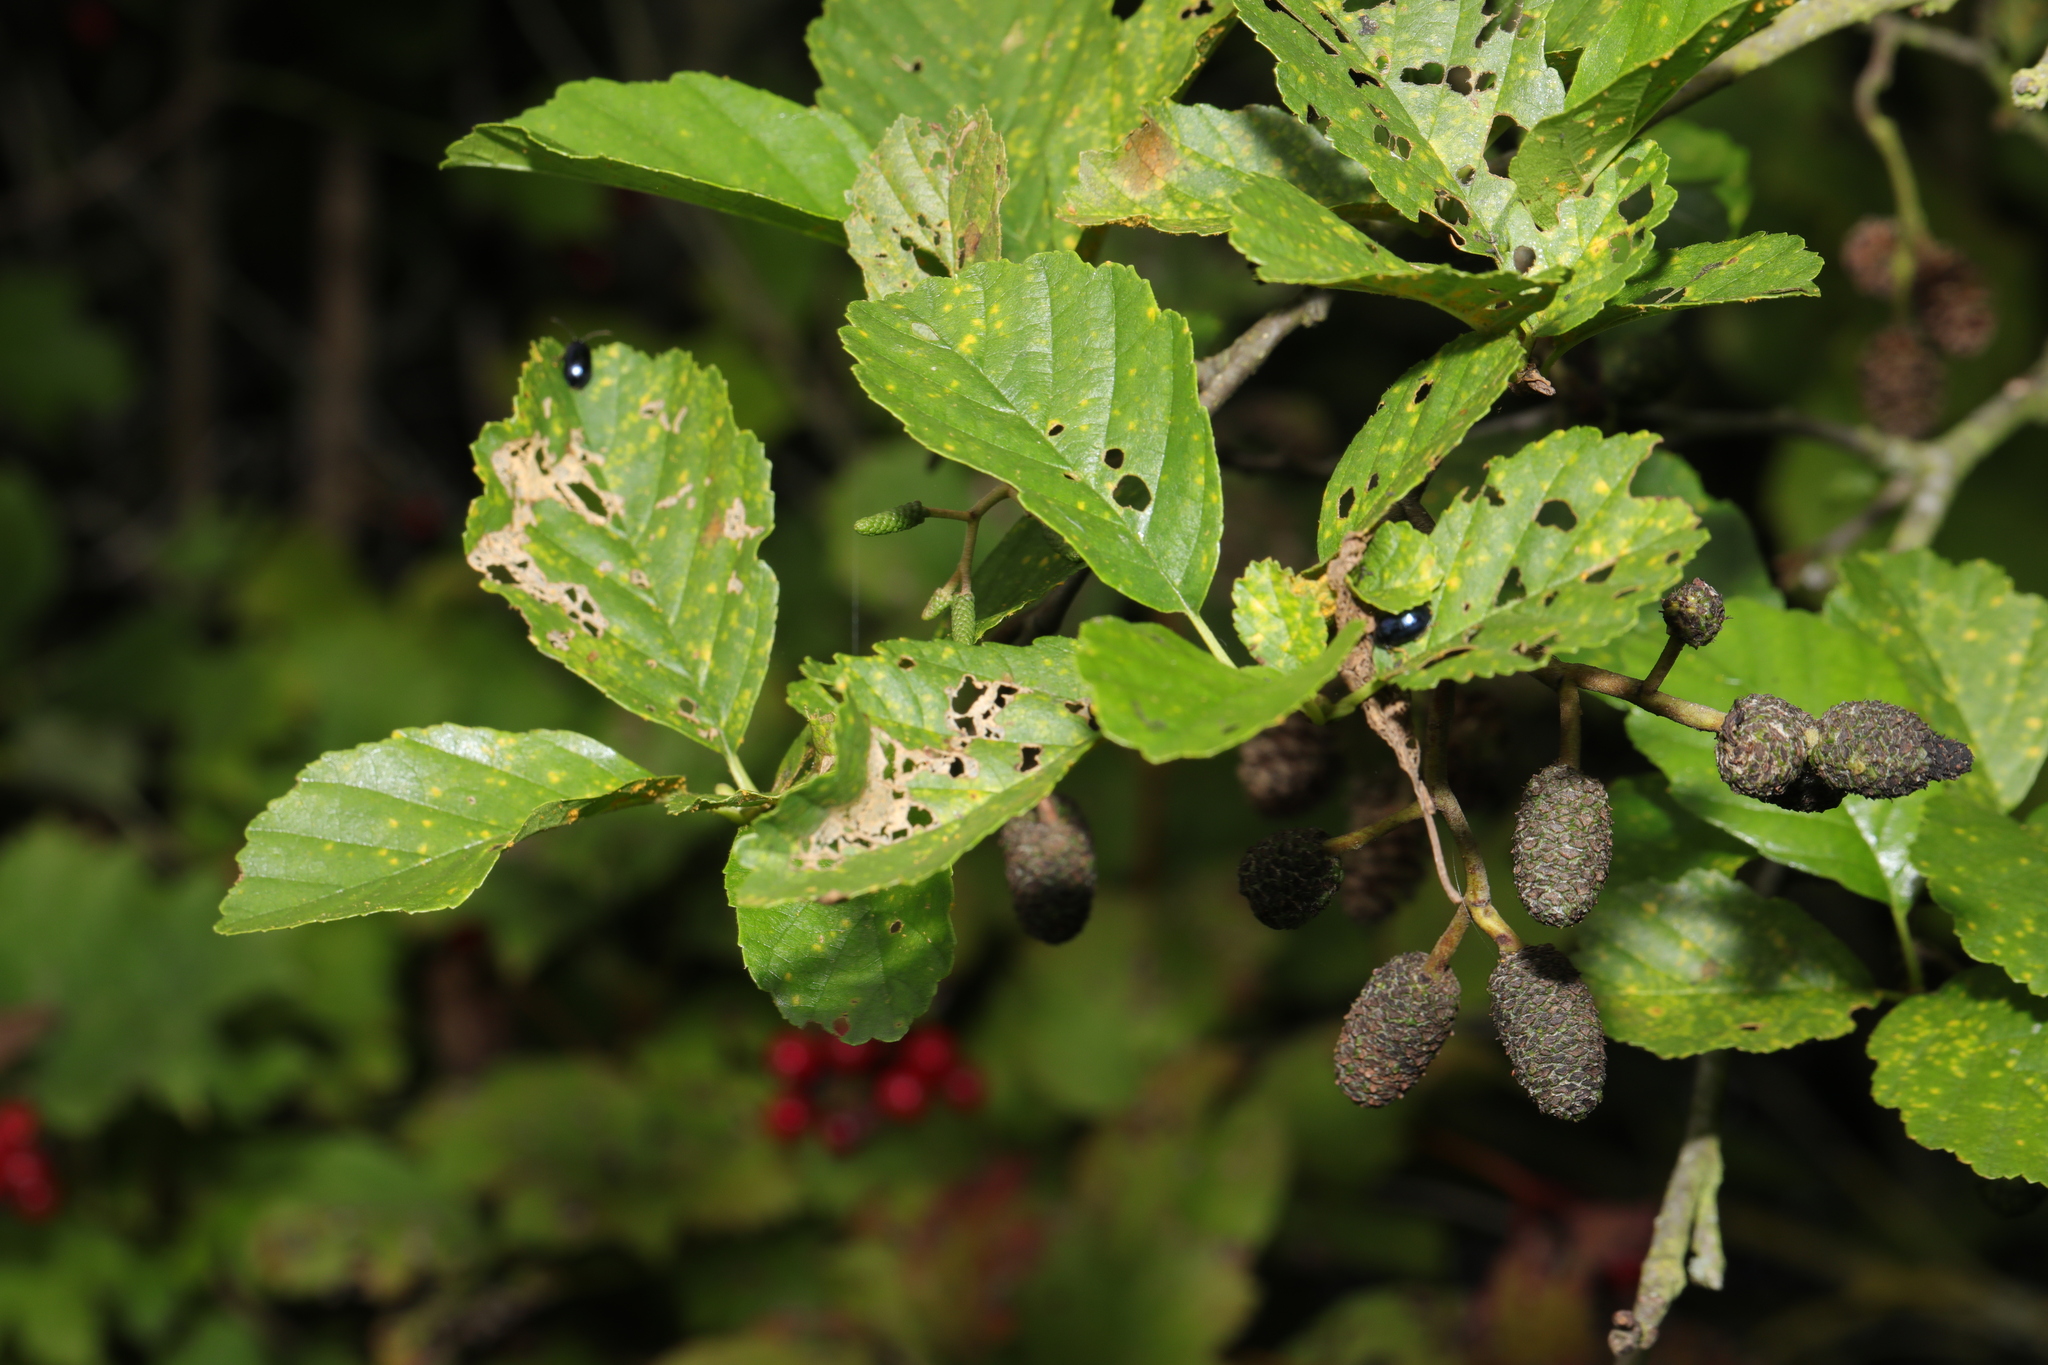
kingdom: Plantae
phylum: Tracheophyta
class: Magnoliopsida
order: Fagales
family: Betulaceae
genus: Alnus
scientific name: Alnus glutinosa
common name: Black alder
